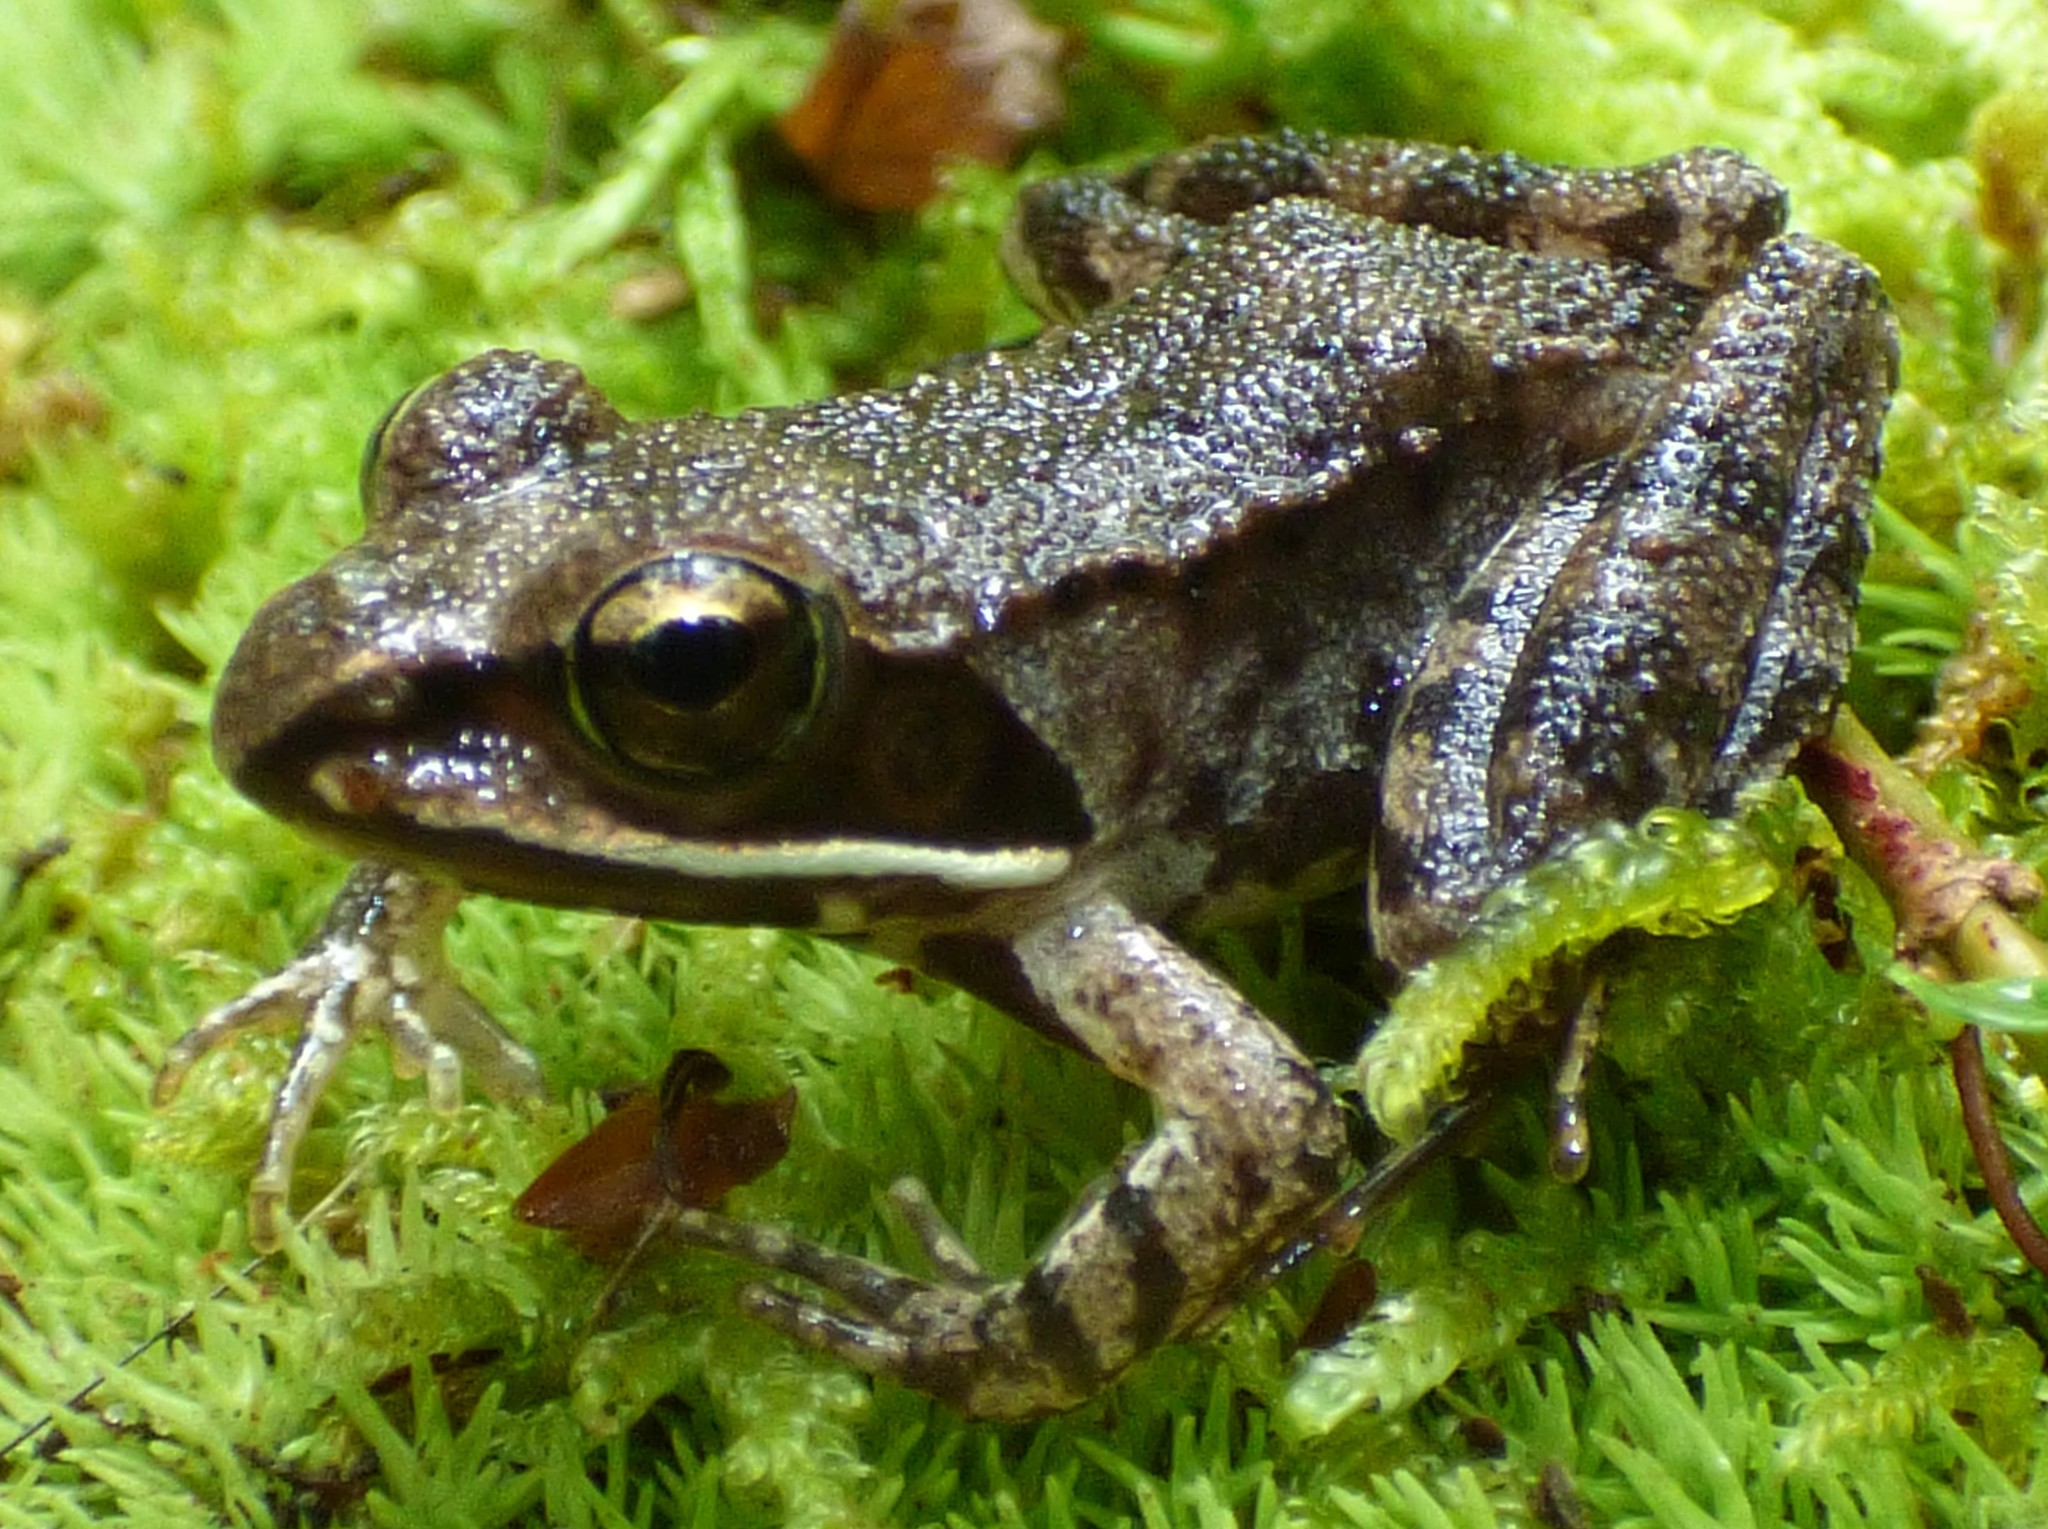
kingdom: Animalia
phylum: Chordata
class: Amphibia
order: Anura
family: Ranidae
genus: Lithobates
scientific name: Lithobates sylvaticus
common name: Wood frog
